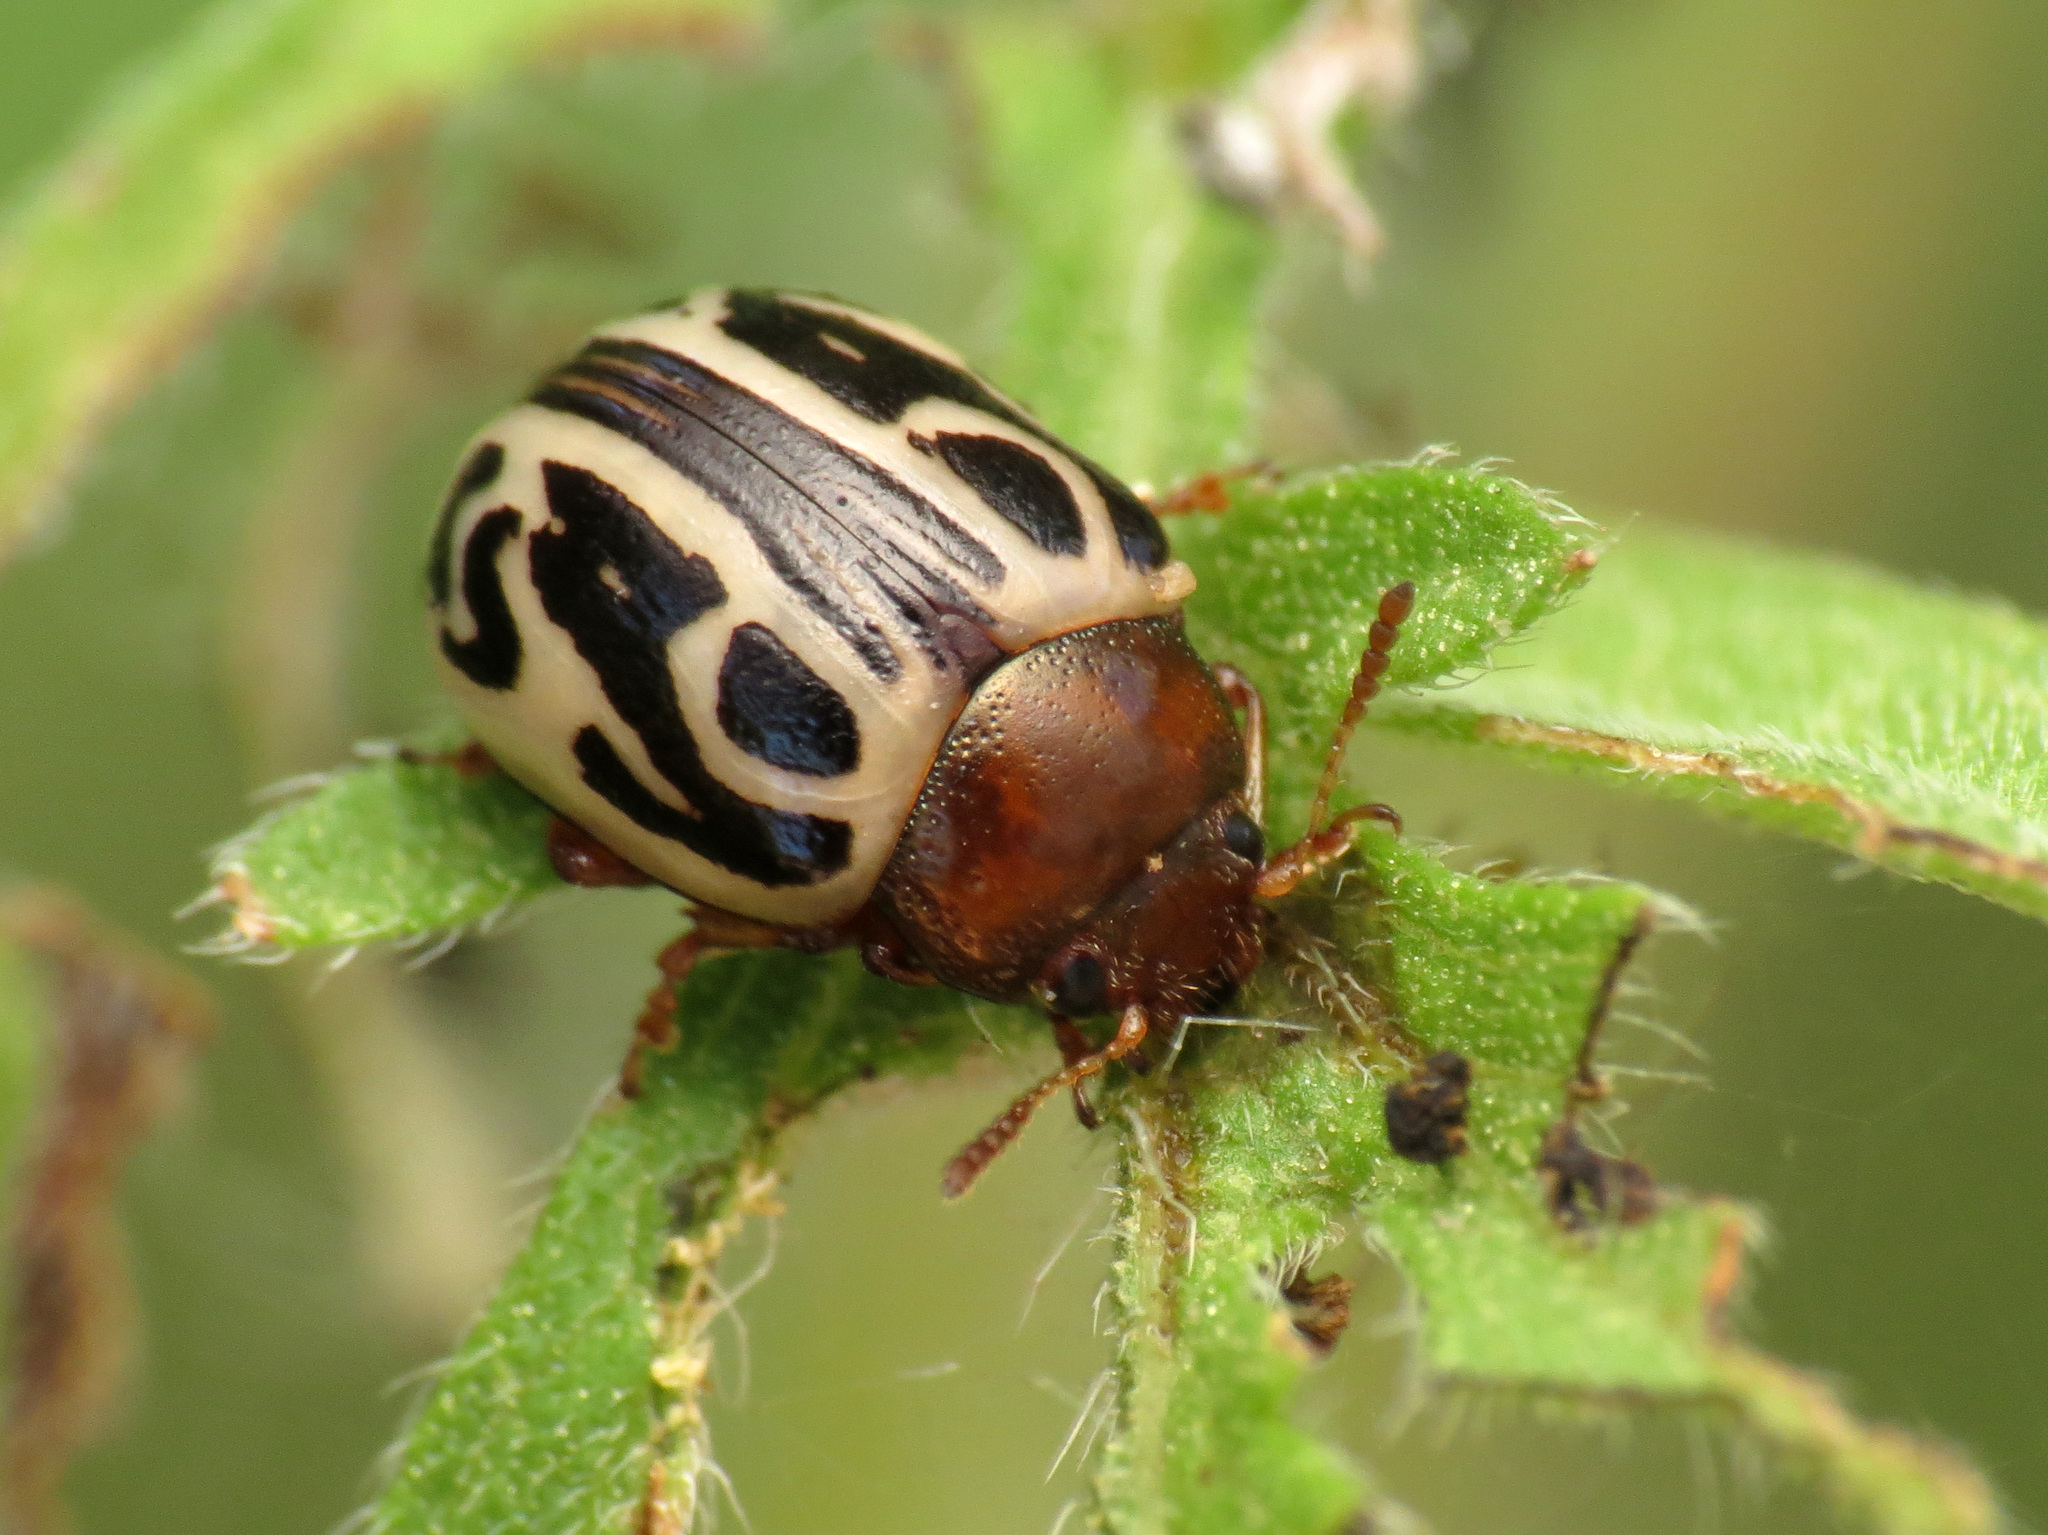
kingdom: Animalia
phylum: Arthropoda
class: Insecta
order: Coleoptera
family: Chrysomelidae
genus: Calligrapha
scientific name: Calligrapha
